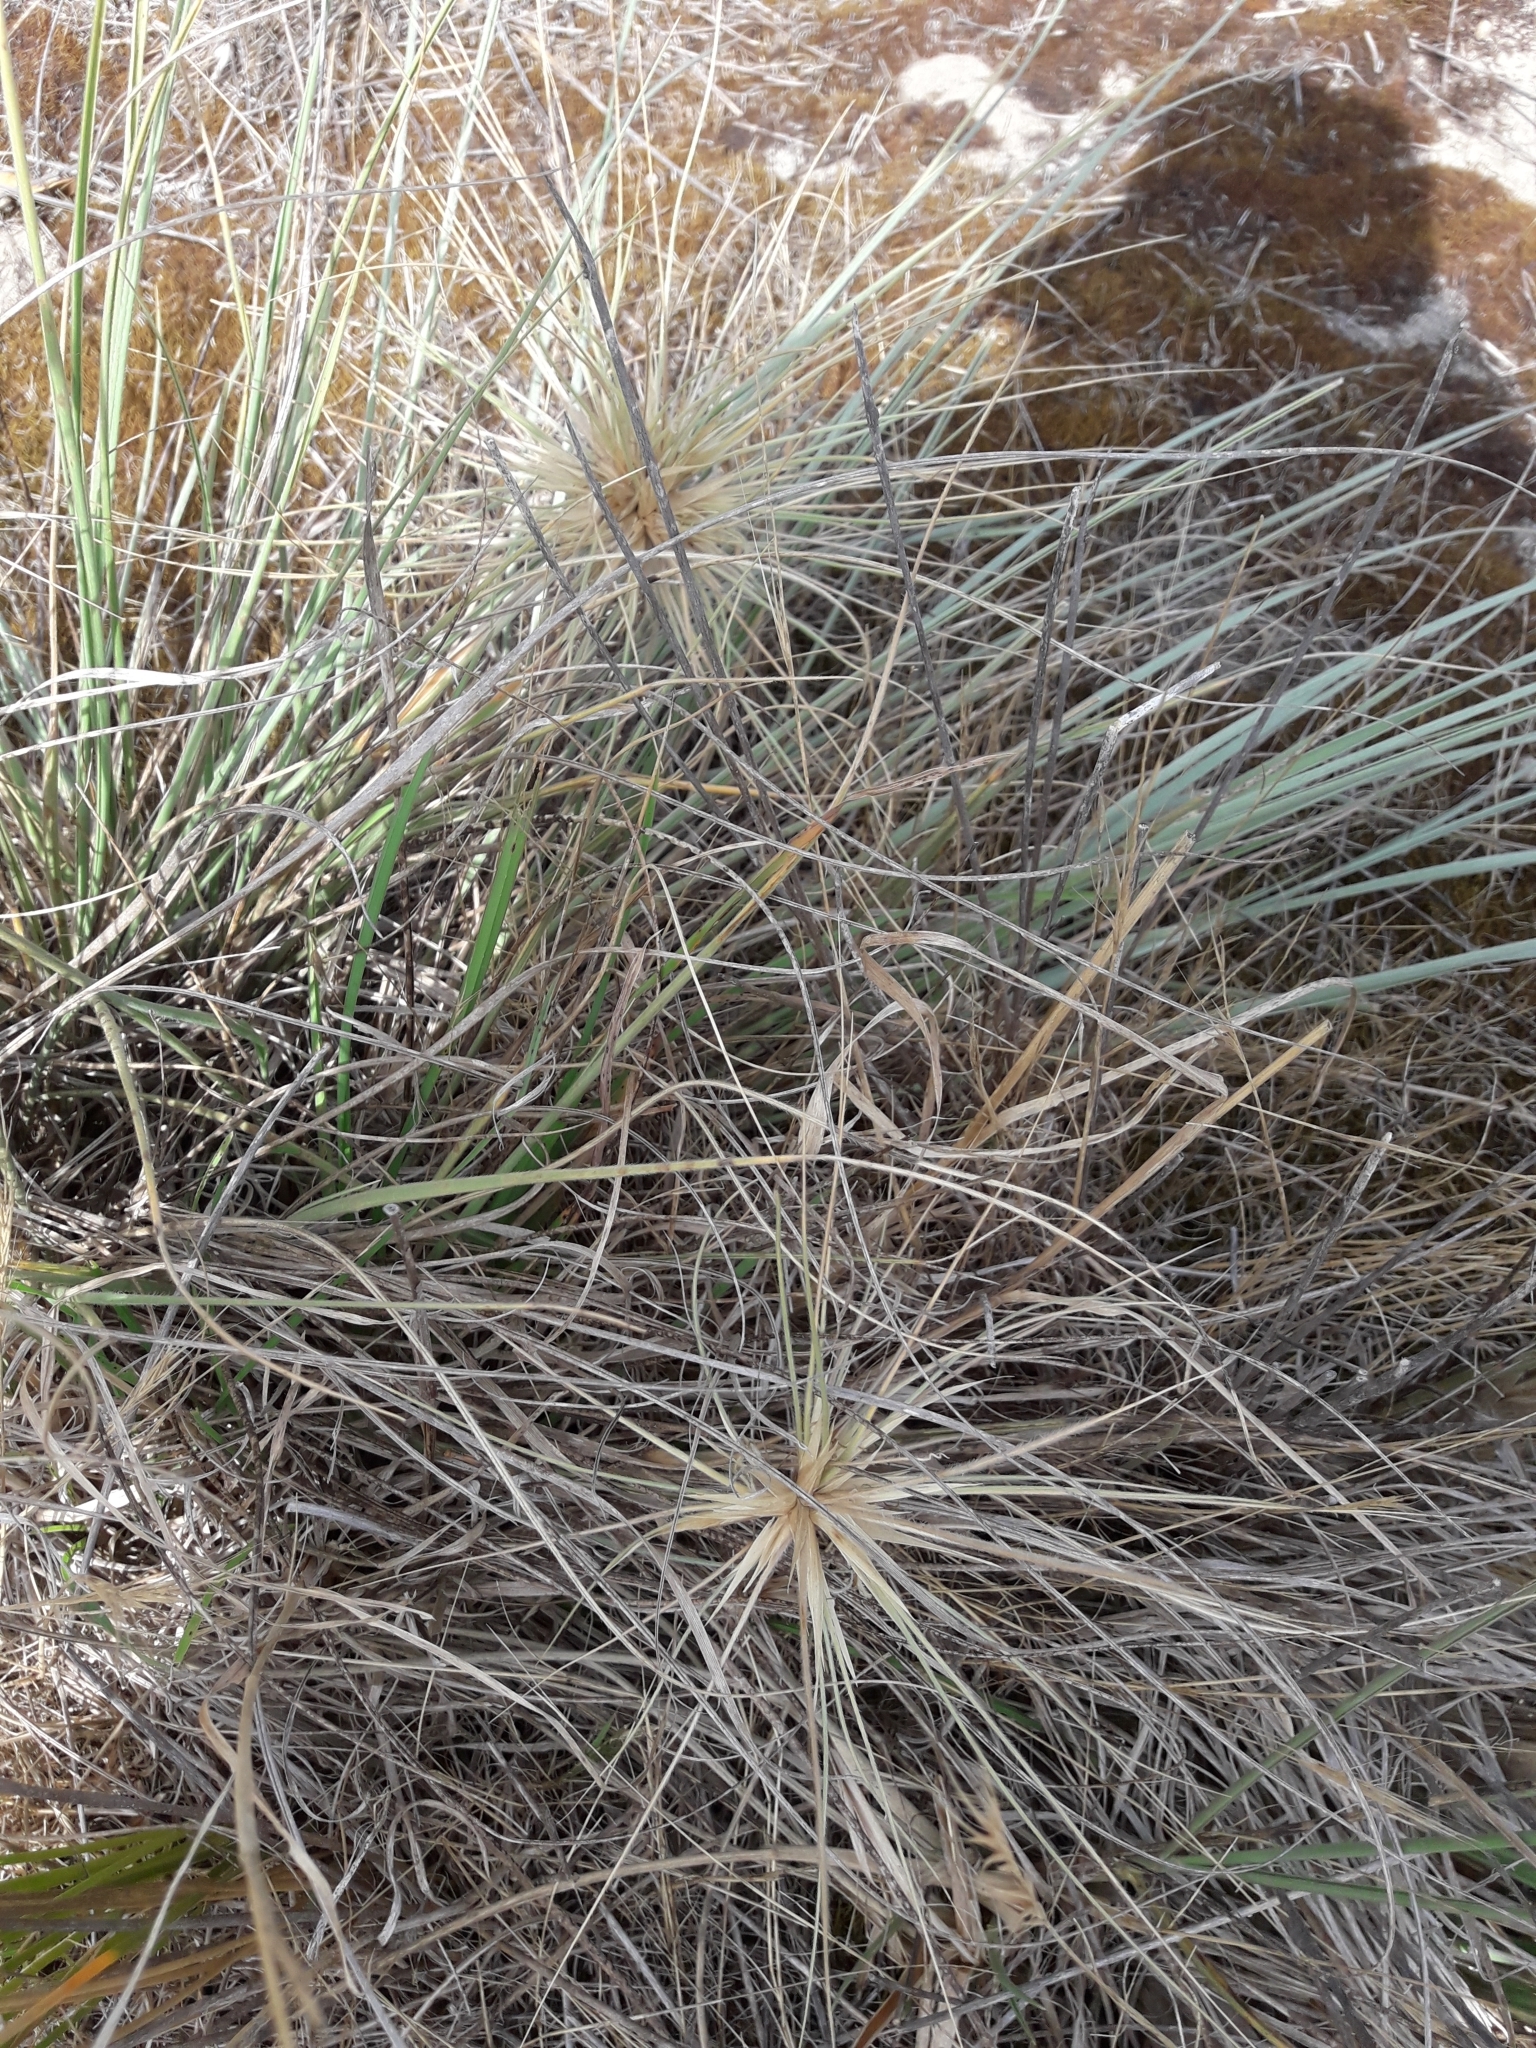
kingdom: Plantae
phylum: Tracheophyta
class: Liliopsida
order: Poales
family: Poaceae
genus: Spinifex
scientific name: Spinifex sericeus
